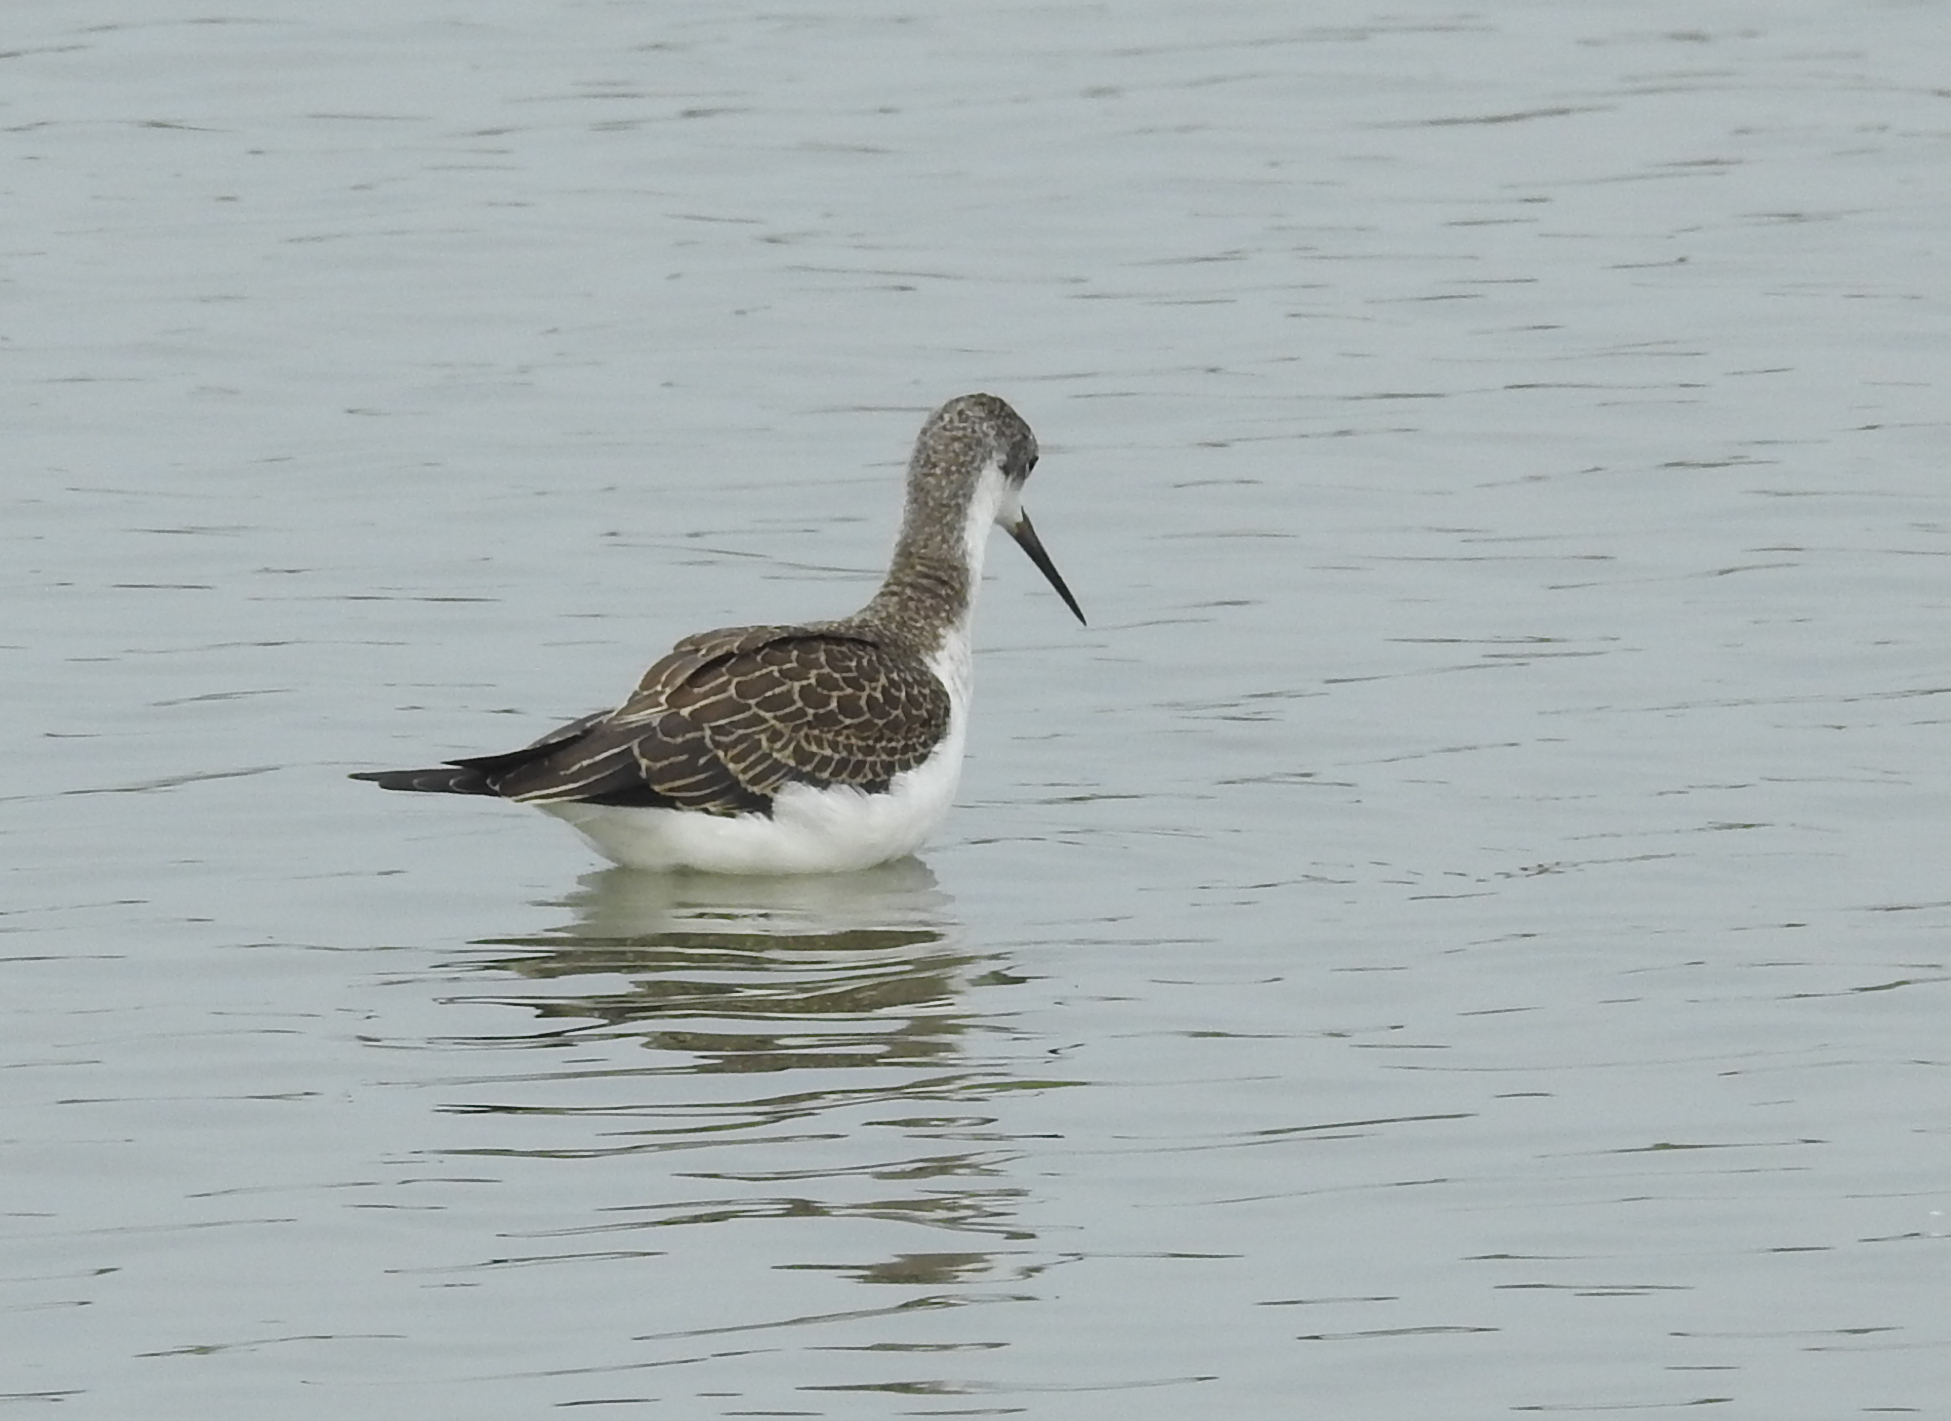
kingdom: Animalia
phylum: Chordata
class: Aves
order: Charadriiformes
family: Recurvirostridae
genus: Himantopus
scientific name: Himantopus himantopus
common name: Black-winged stilt
